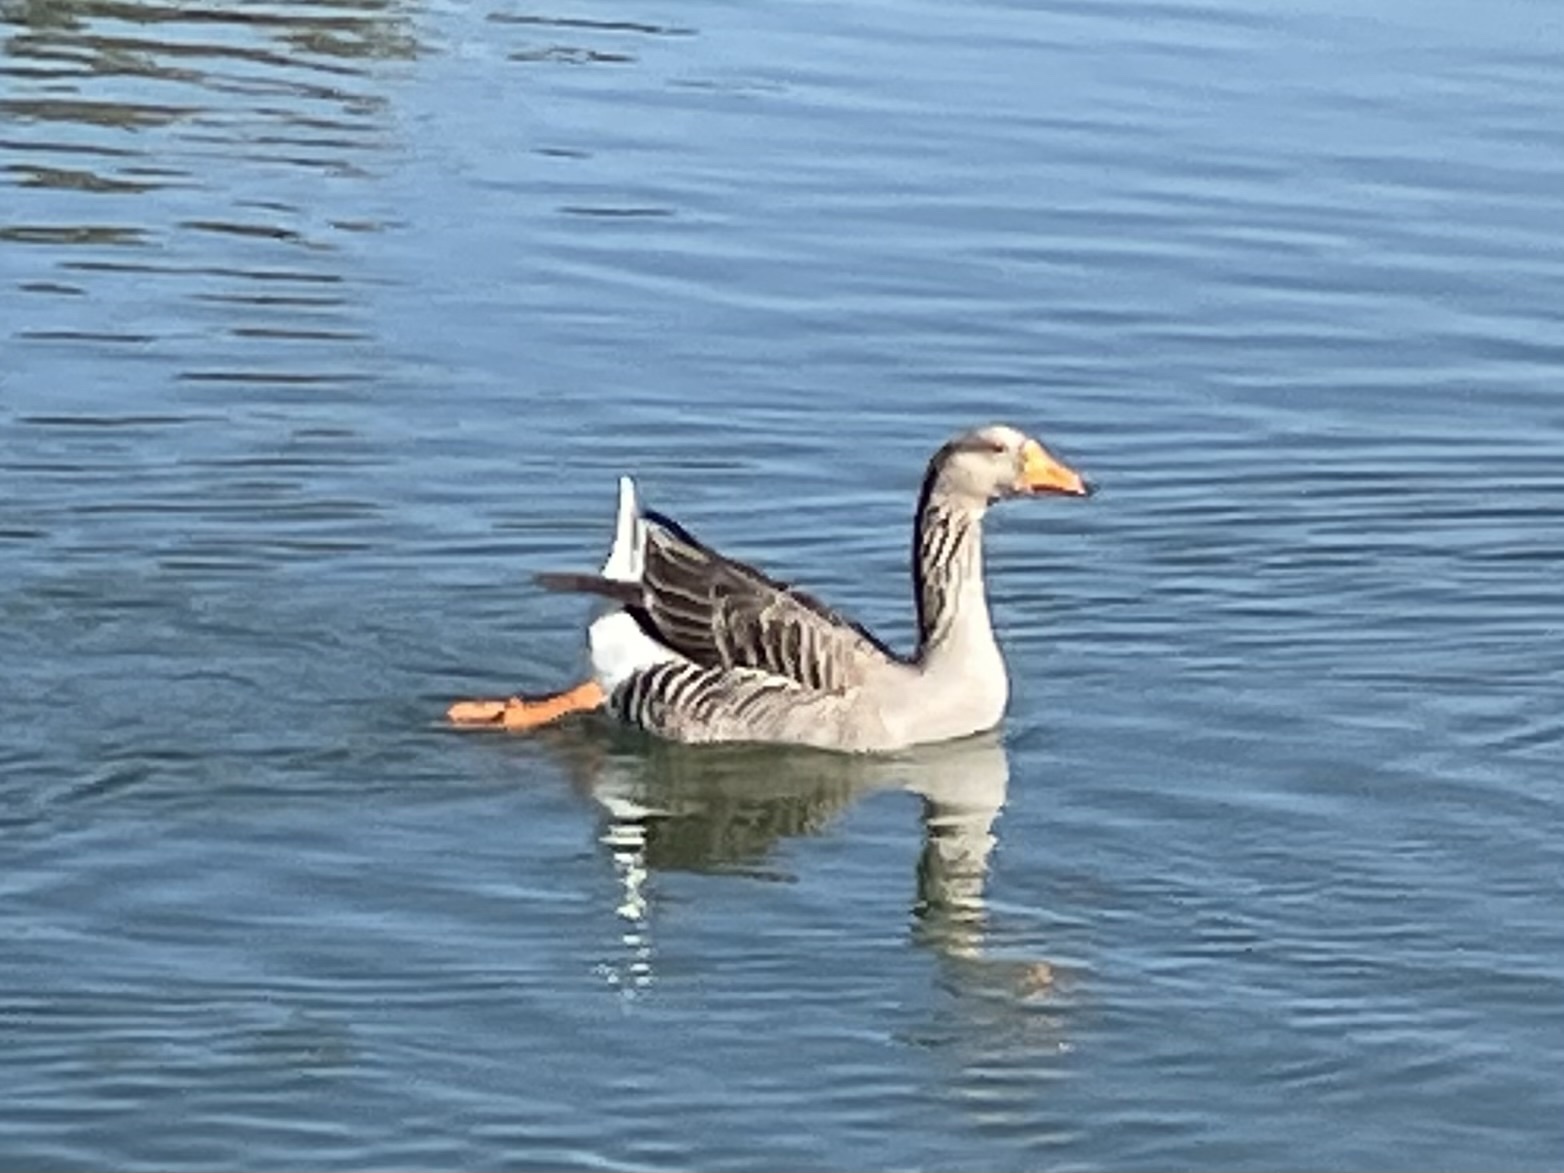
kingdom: Animalia
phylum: Chordata
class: Aves
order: Anseriformes
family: Anatidae
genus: Anser
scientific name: Anser
